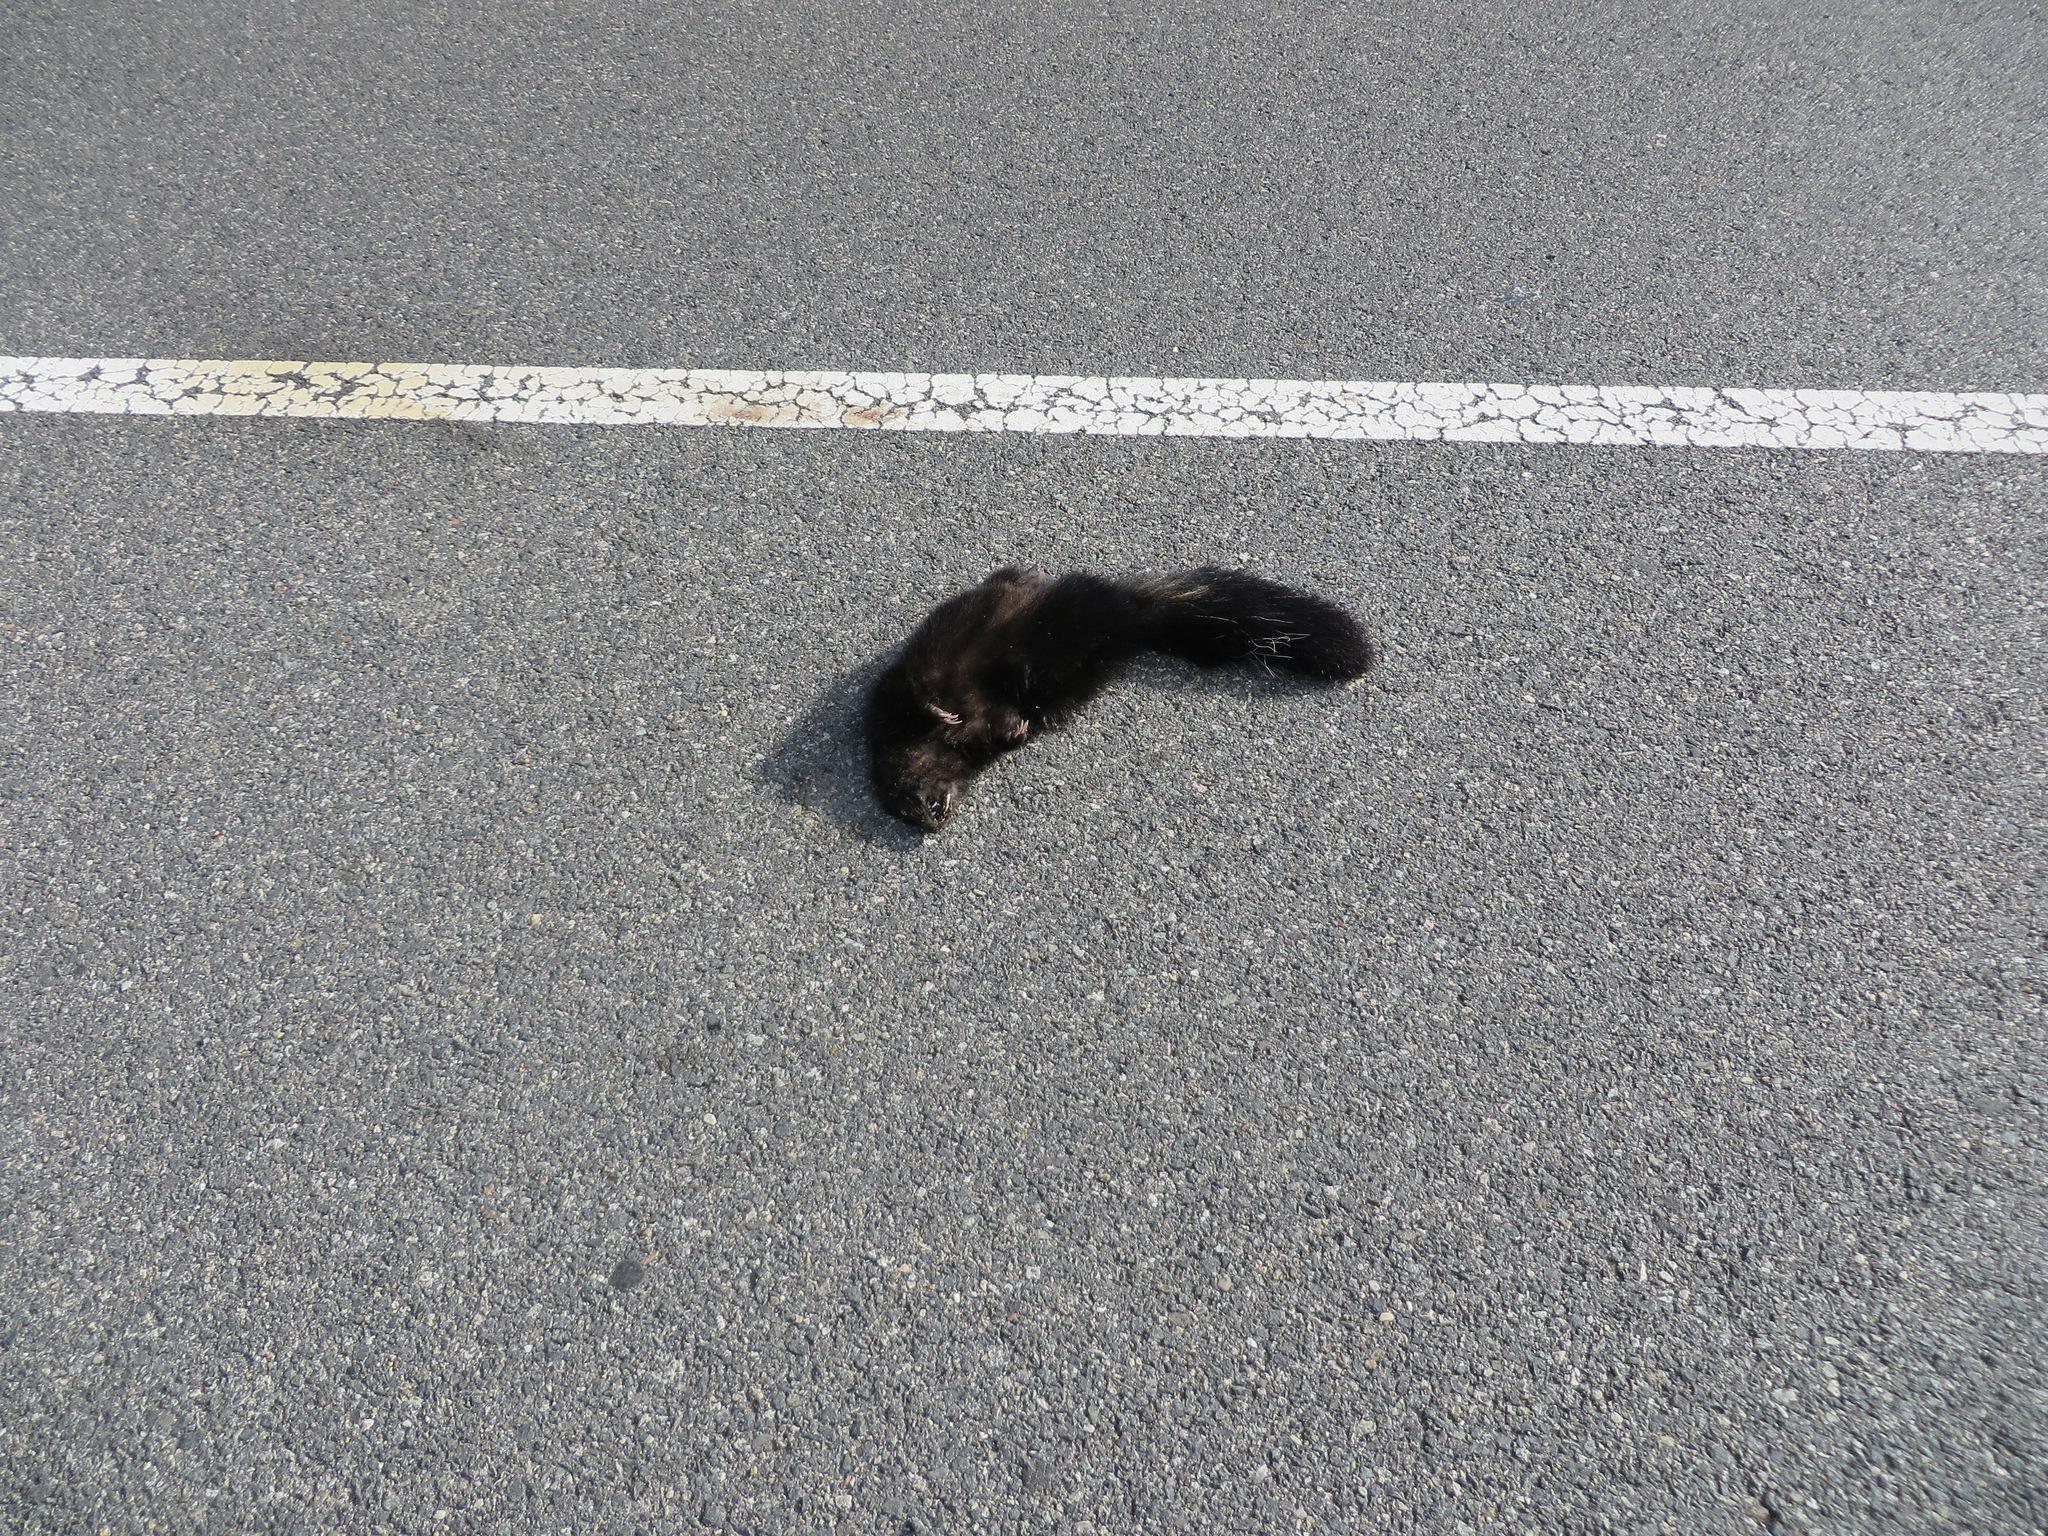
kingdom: Animalia
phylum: Chordata
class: Mammalia
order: Carnivora
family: Mephitidae
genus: Mephitis
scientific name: Mephitis mephitis
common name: Striped skunk
